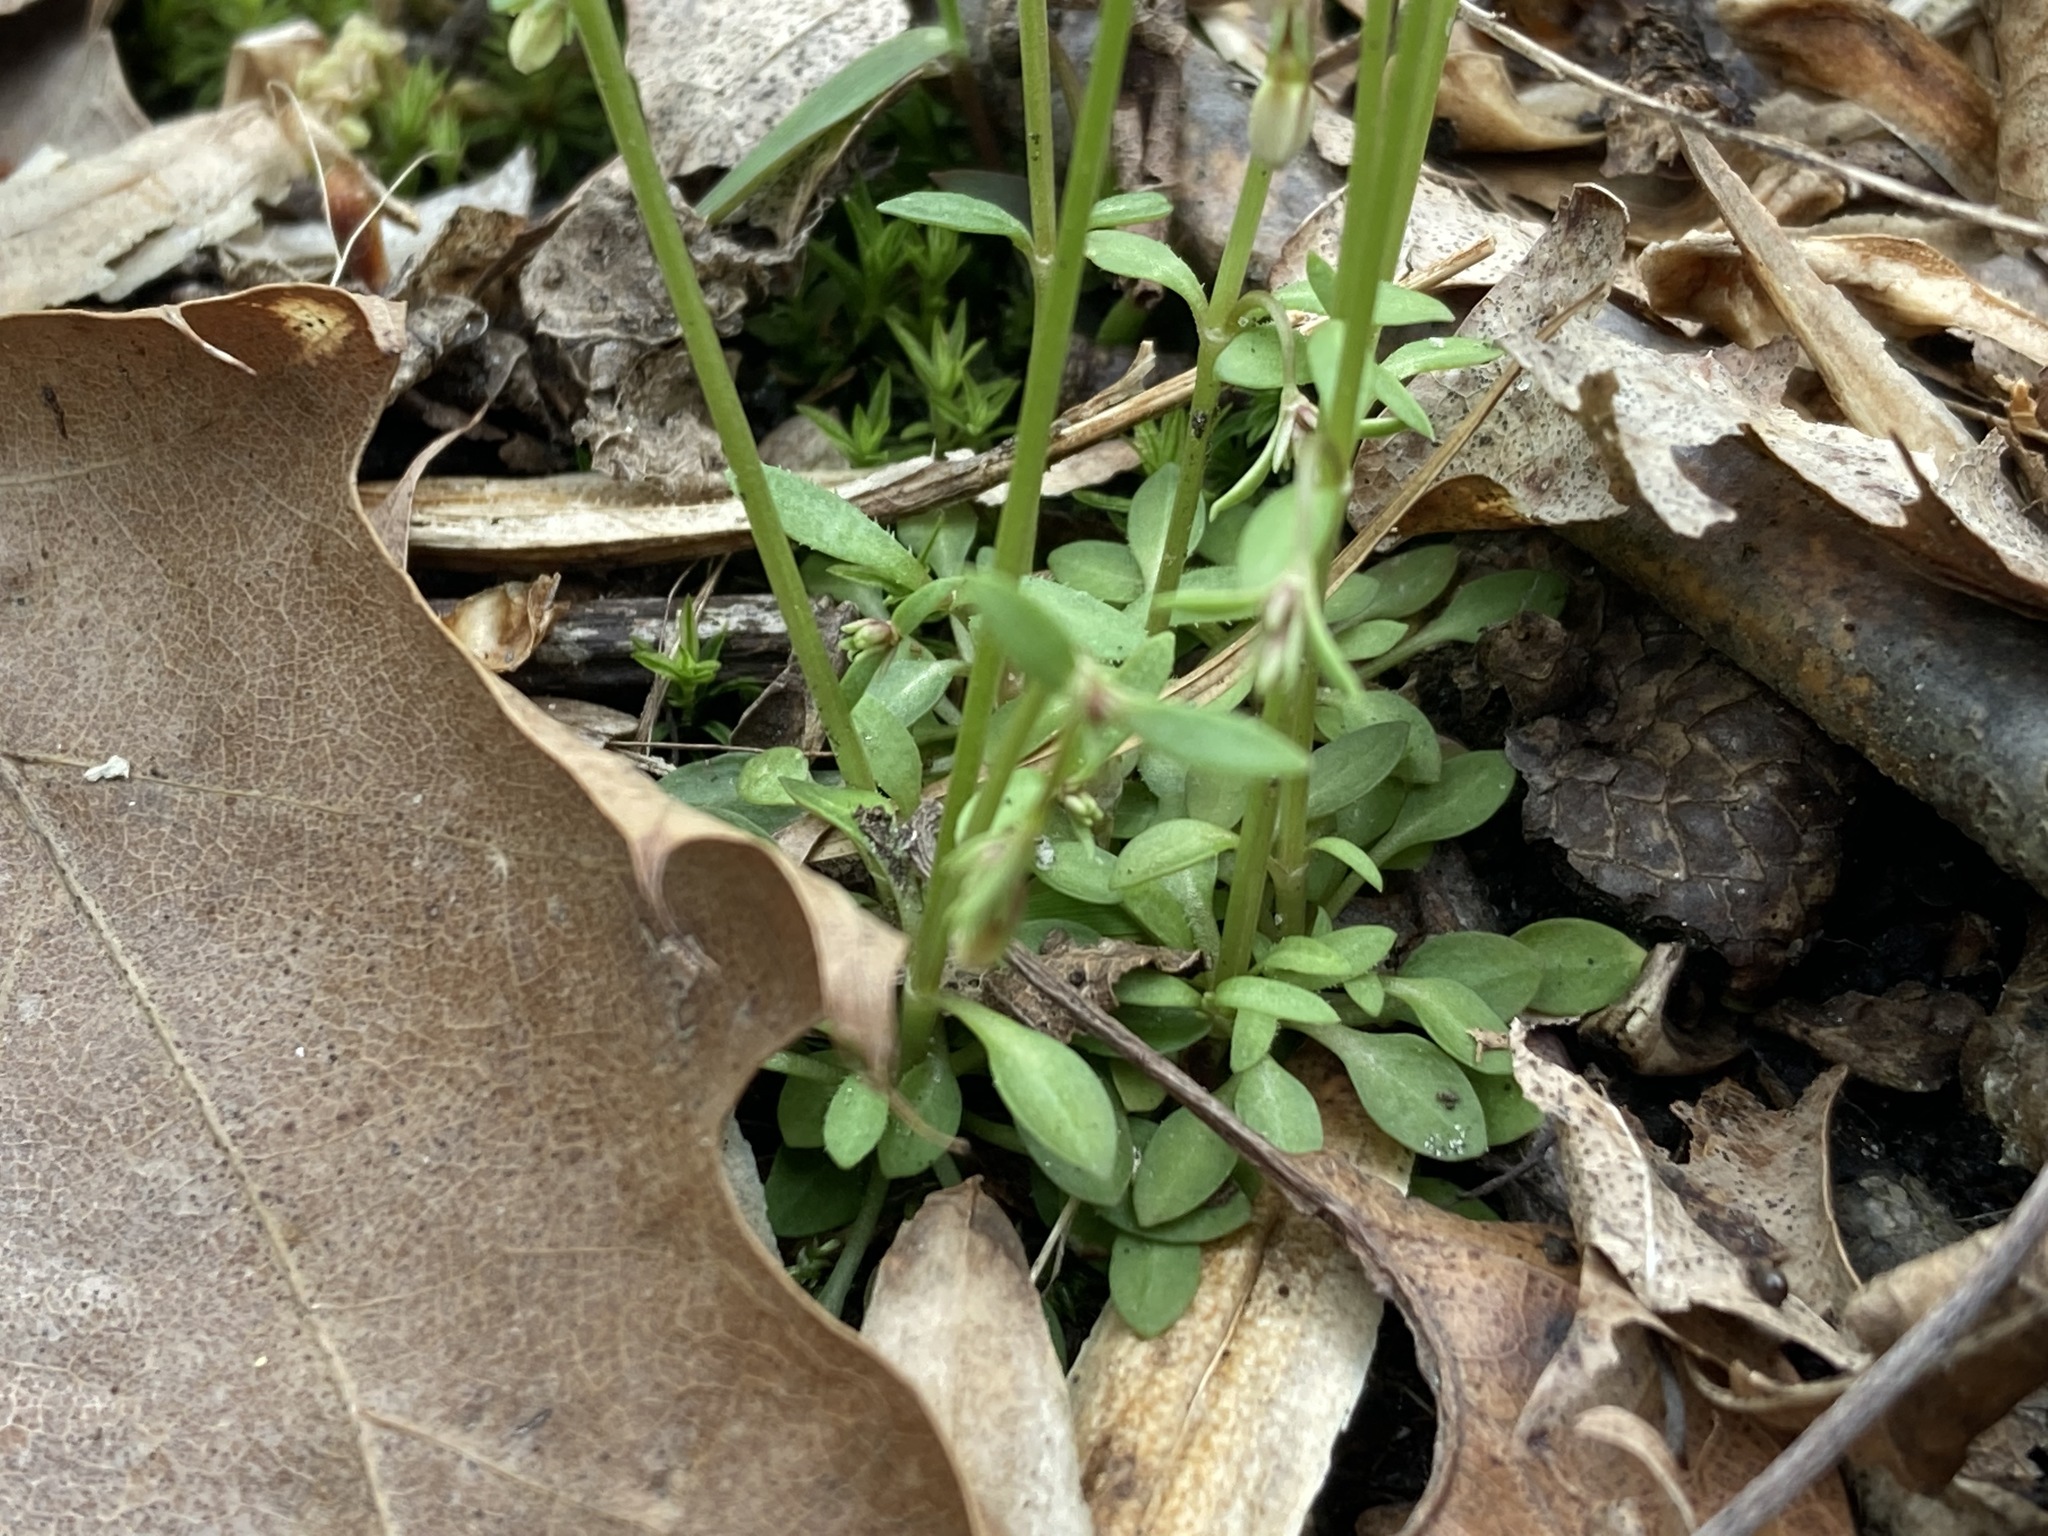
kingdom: Plantae
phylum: Tracheophyta
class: Magnoliopsida
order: Gentianales
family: Rubiaceae
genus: Houstonia
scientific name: Houstonia caerulea
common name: Bluets
